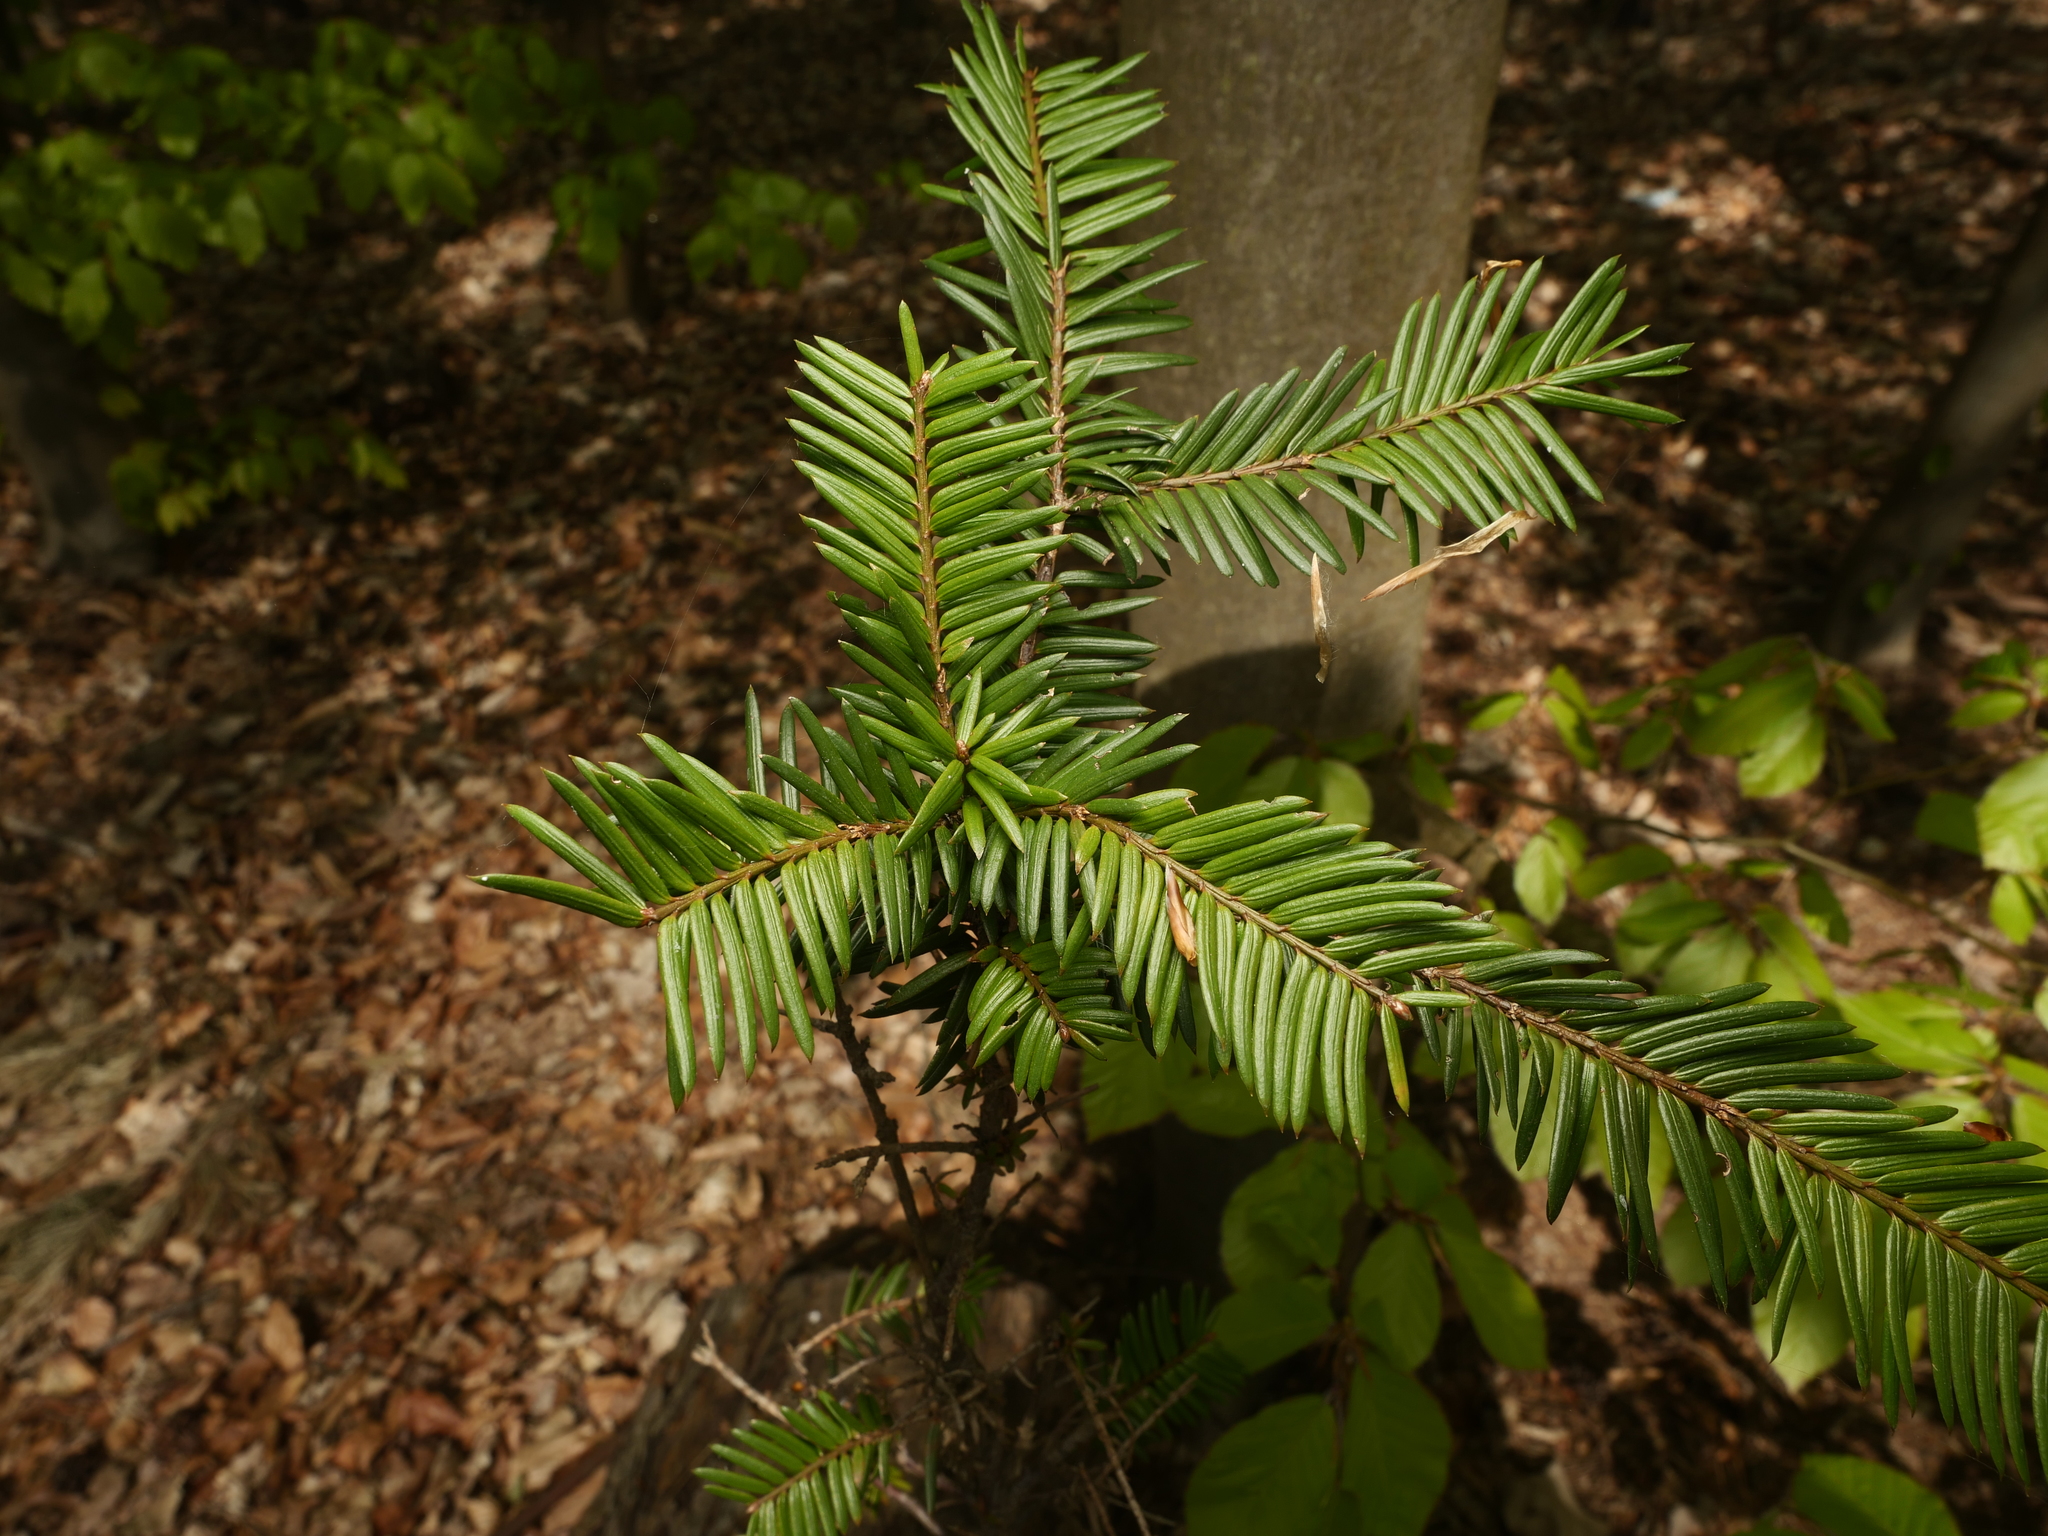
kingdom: Plantae
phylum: Tracheophyta
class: Pinopsida
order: Pinales
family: Taxaceae
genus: Taxus
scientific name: Taxus baccata
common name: Yew
